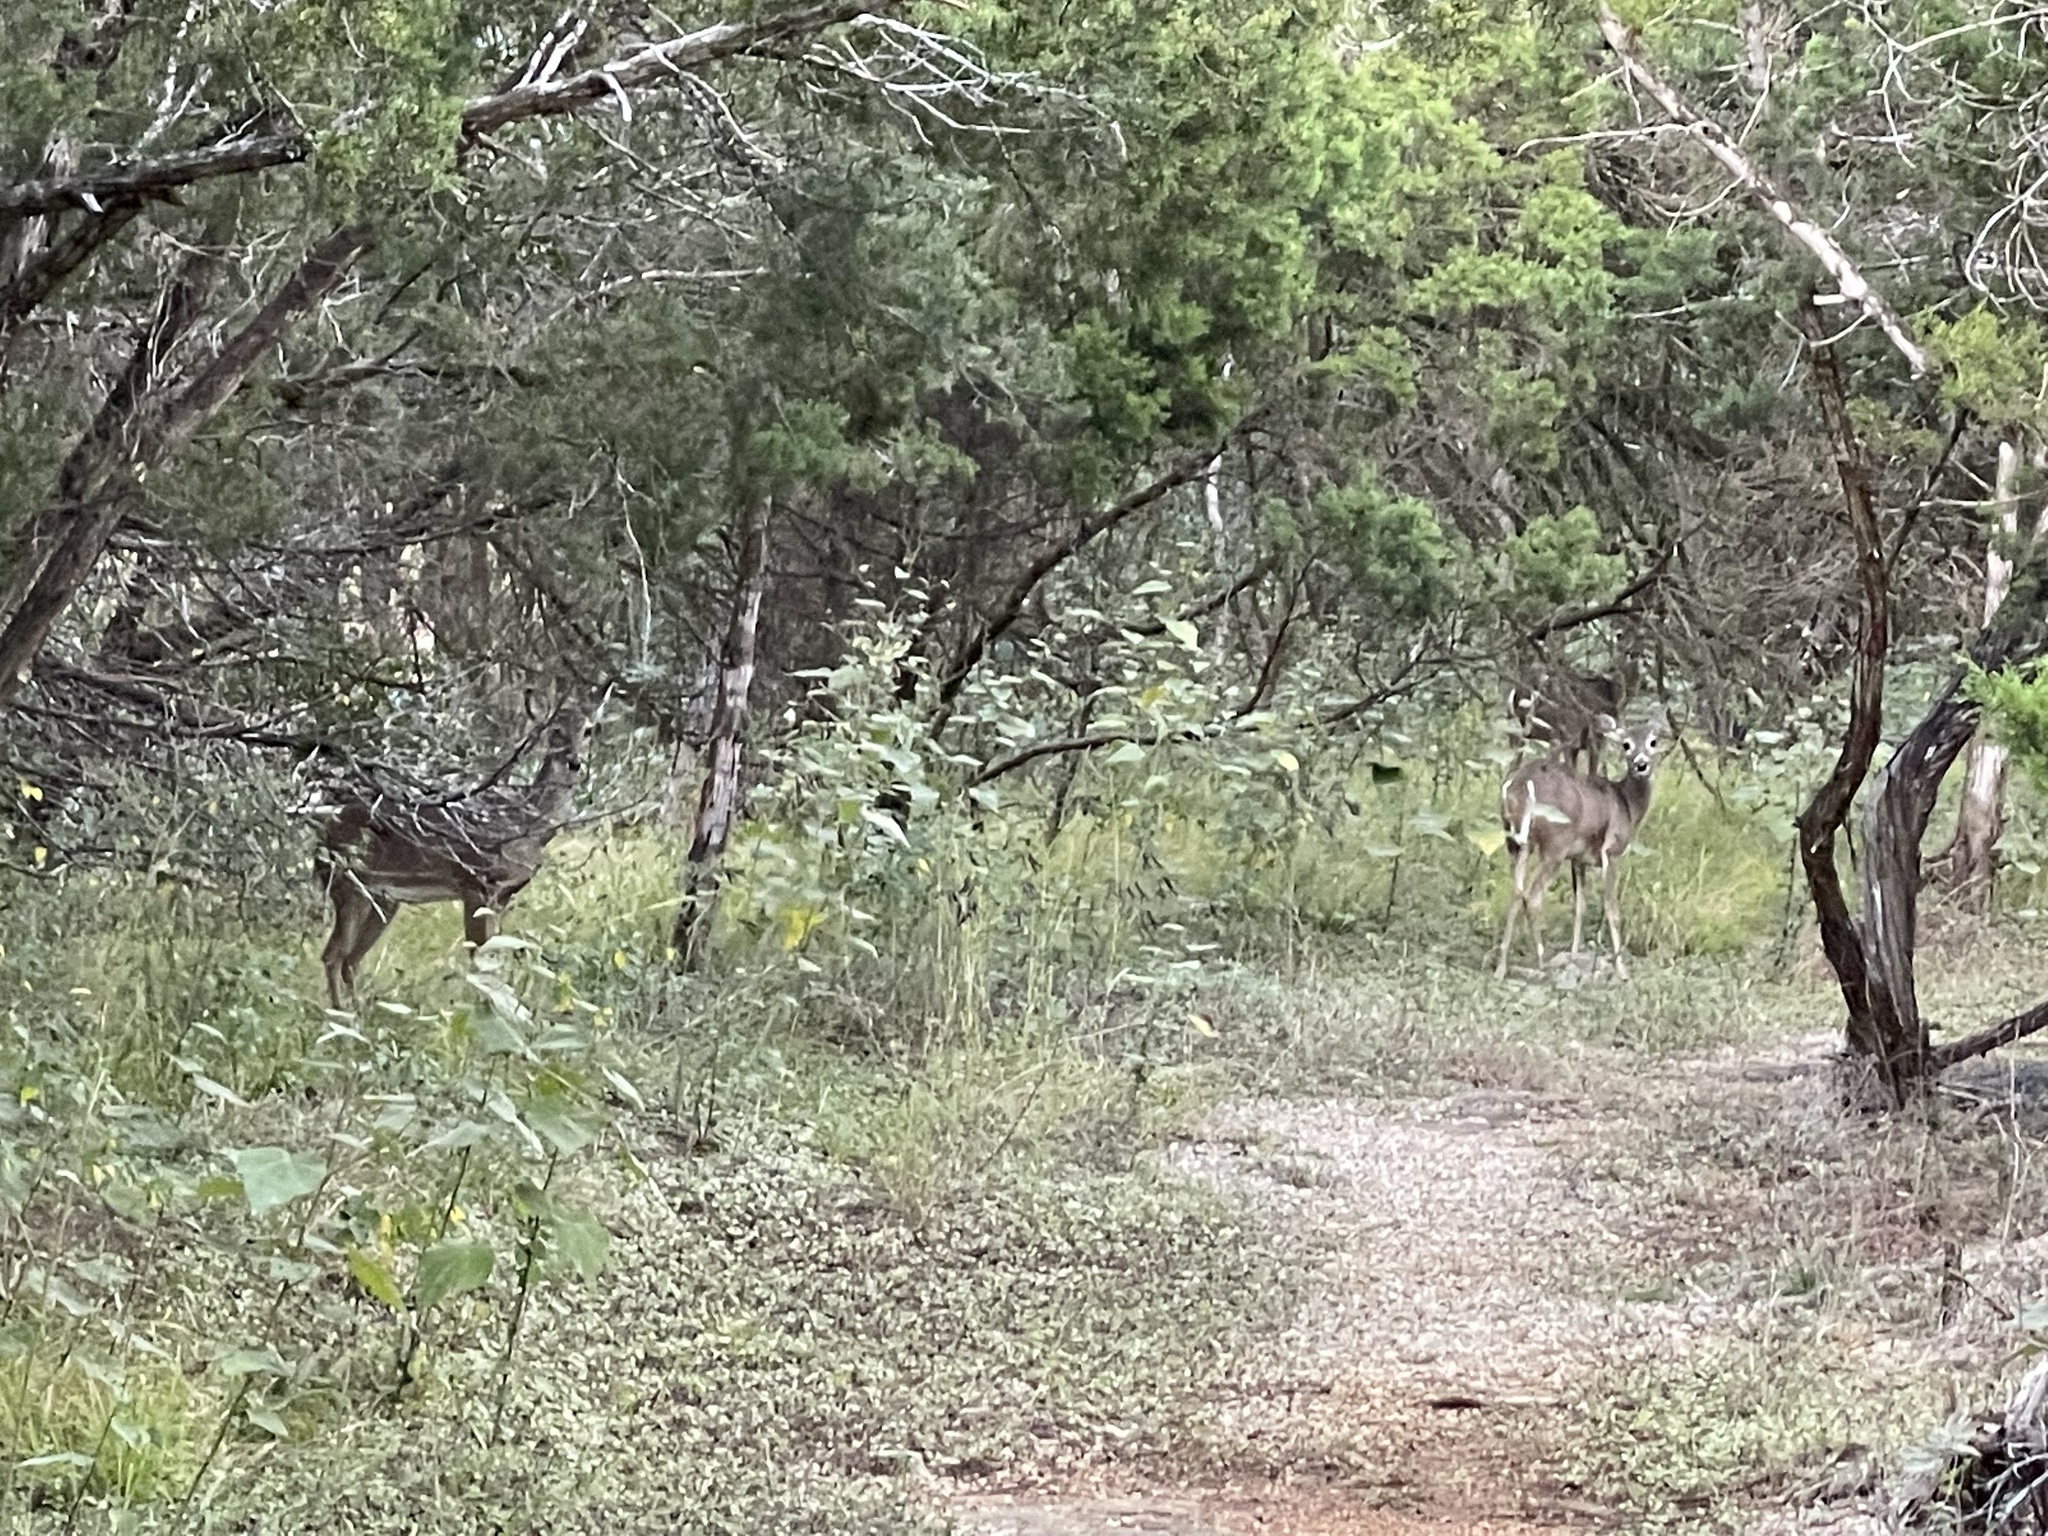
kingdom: Animalia
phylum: Chordata
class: Mammalia
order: Artiodactyla
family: Cervidae
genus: Odocoileus
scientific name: Odocoileus virginianus
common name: White-tailed deer
